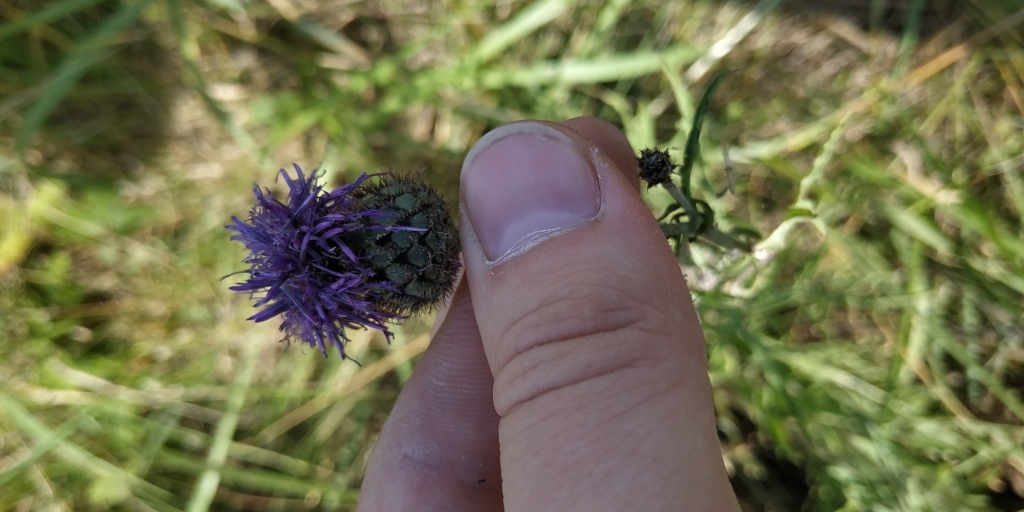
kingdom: Plantae
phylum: Tracheophyta
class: Magnoliopsida
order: Asterales
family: Asteraceae
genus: Centaurea
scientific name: Centaurea scabiosa
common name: Greater knapweed
